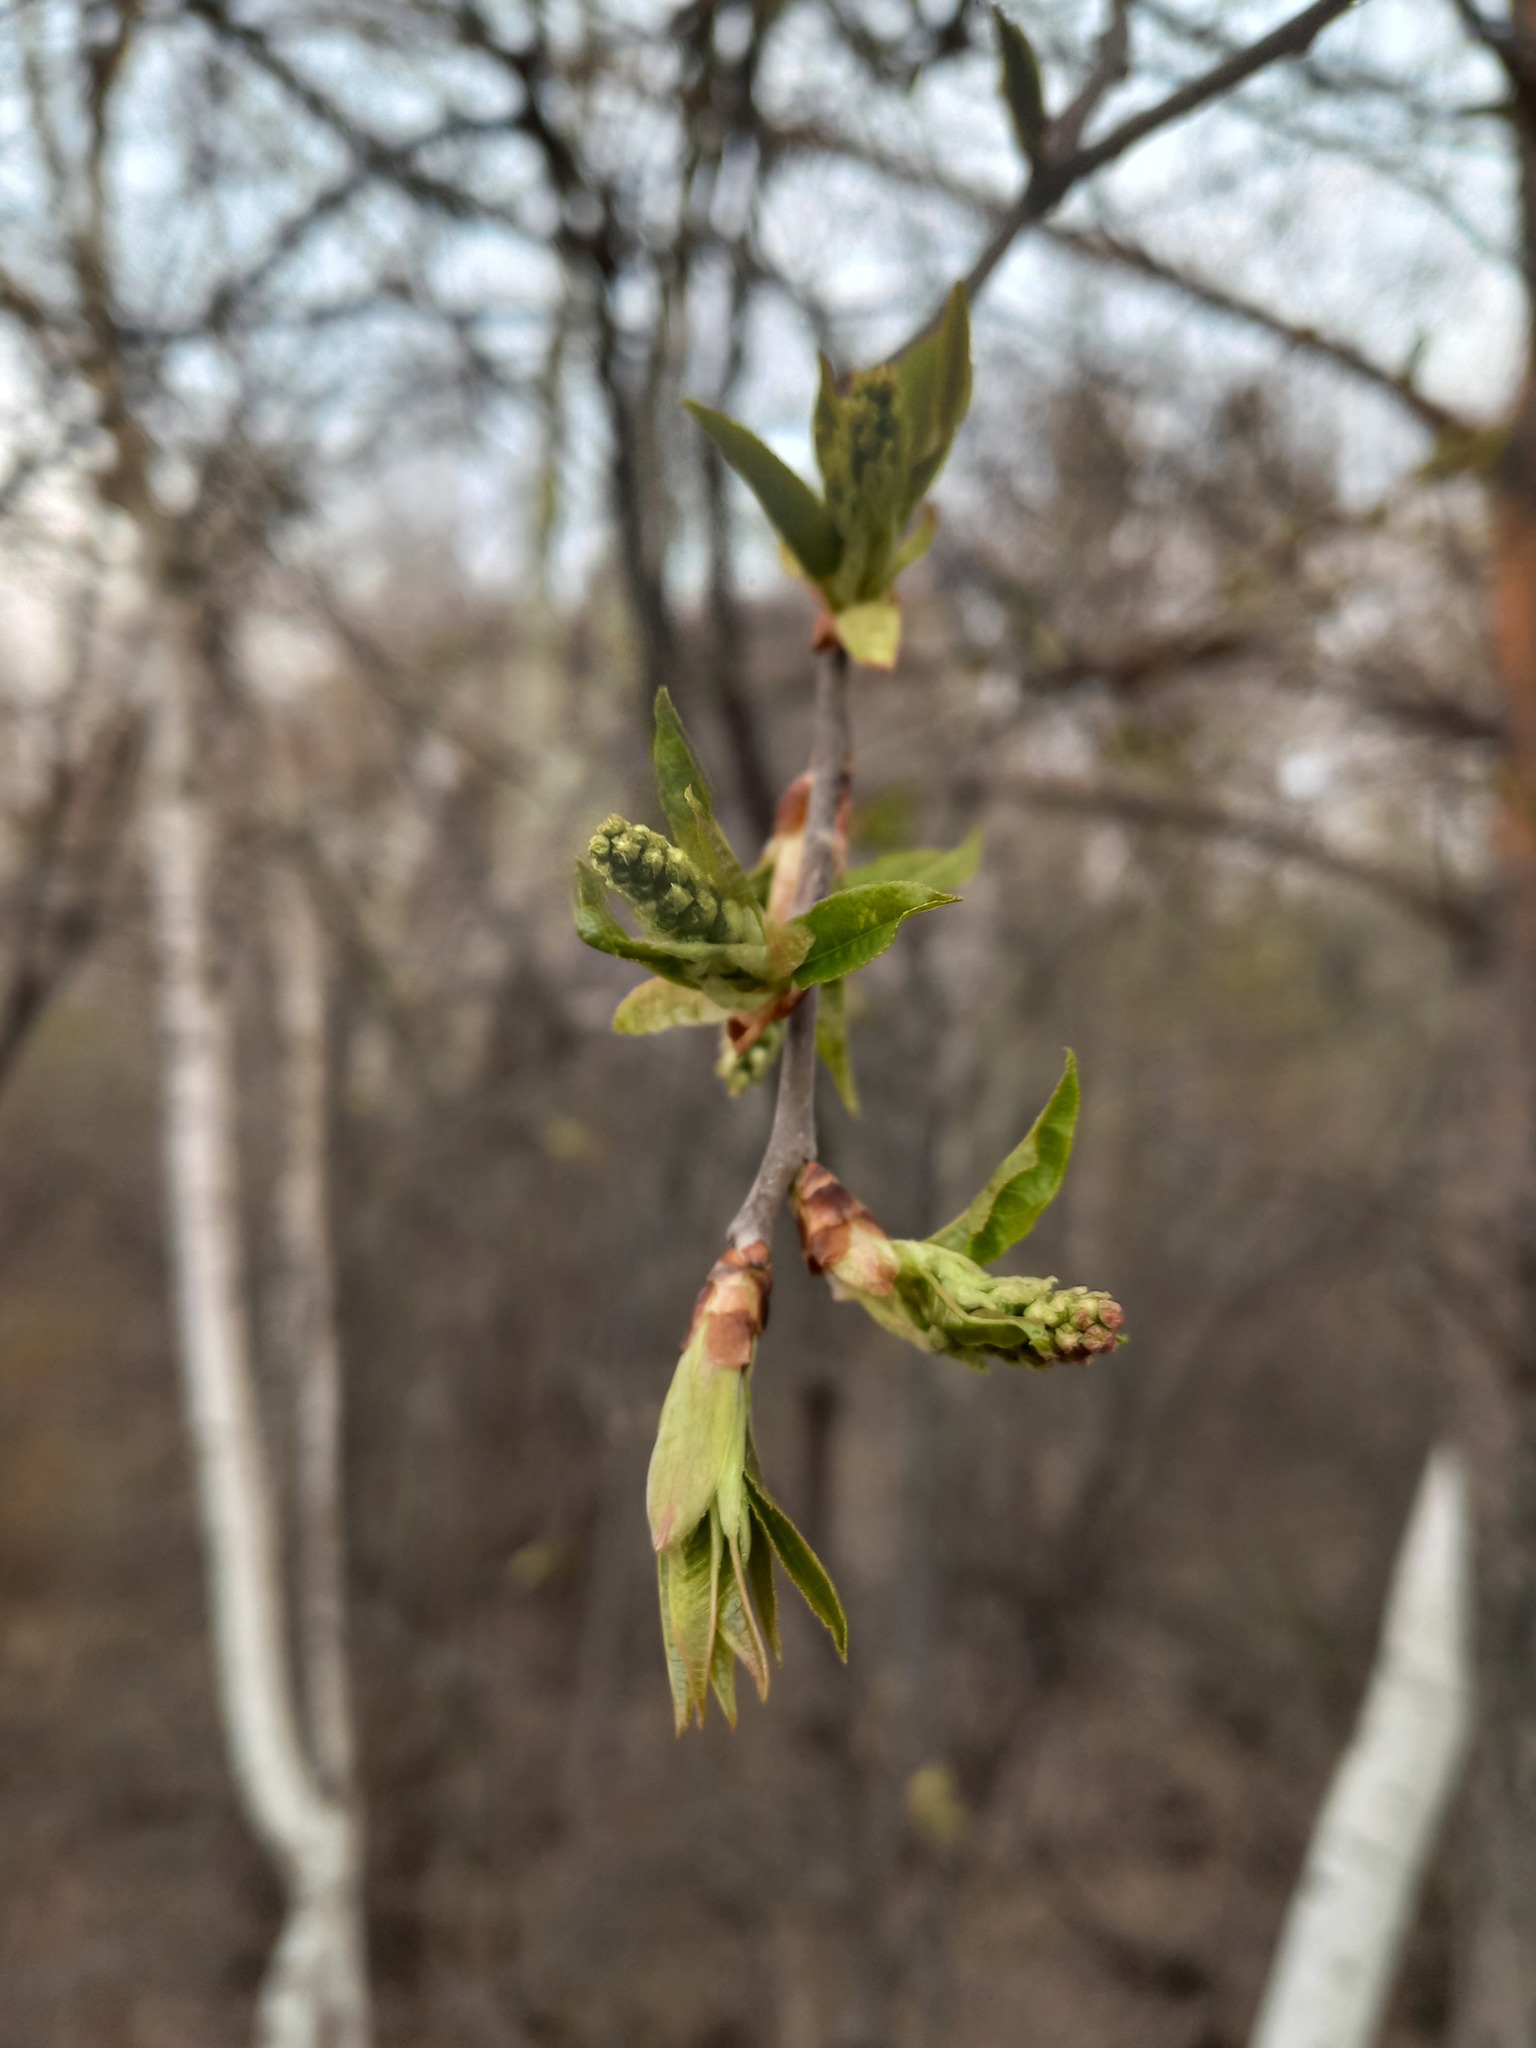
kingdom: Plantae
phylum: Tracheophyta
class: Magnoliopsida
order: Rosales
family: Rosaceae
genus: Prunus
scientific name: Prunus padus
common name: Bird cherry
